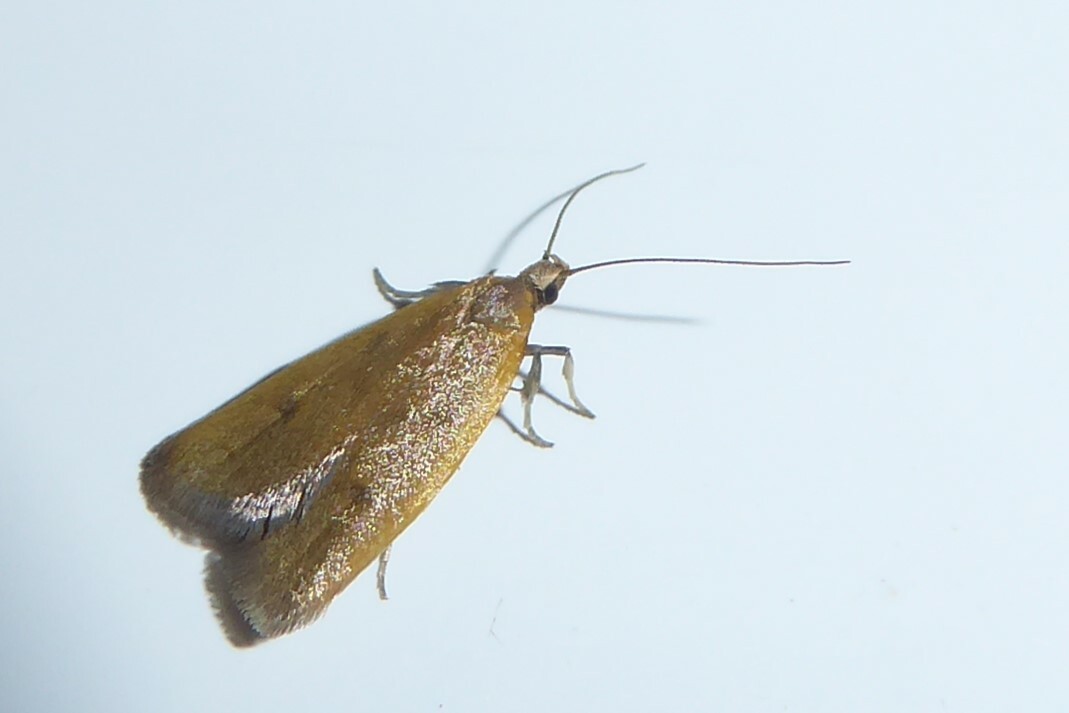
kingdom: Animalia
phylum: Arthropoda
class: Insecta
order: Lepidoptera
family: Oecophoridae
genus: Gymnobathra
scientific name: Gymnobathra parca
